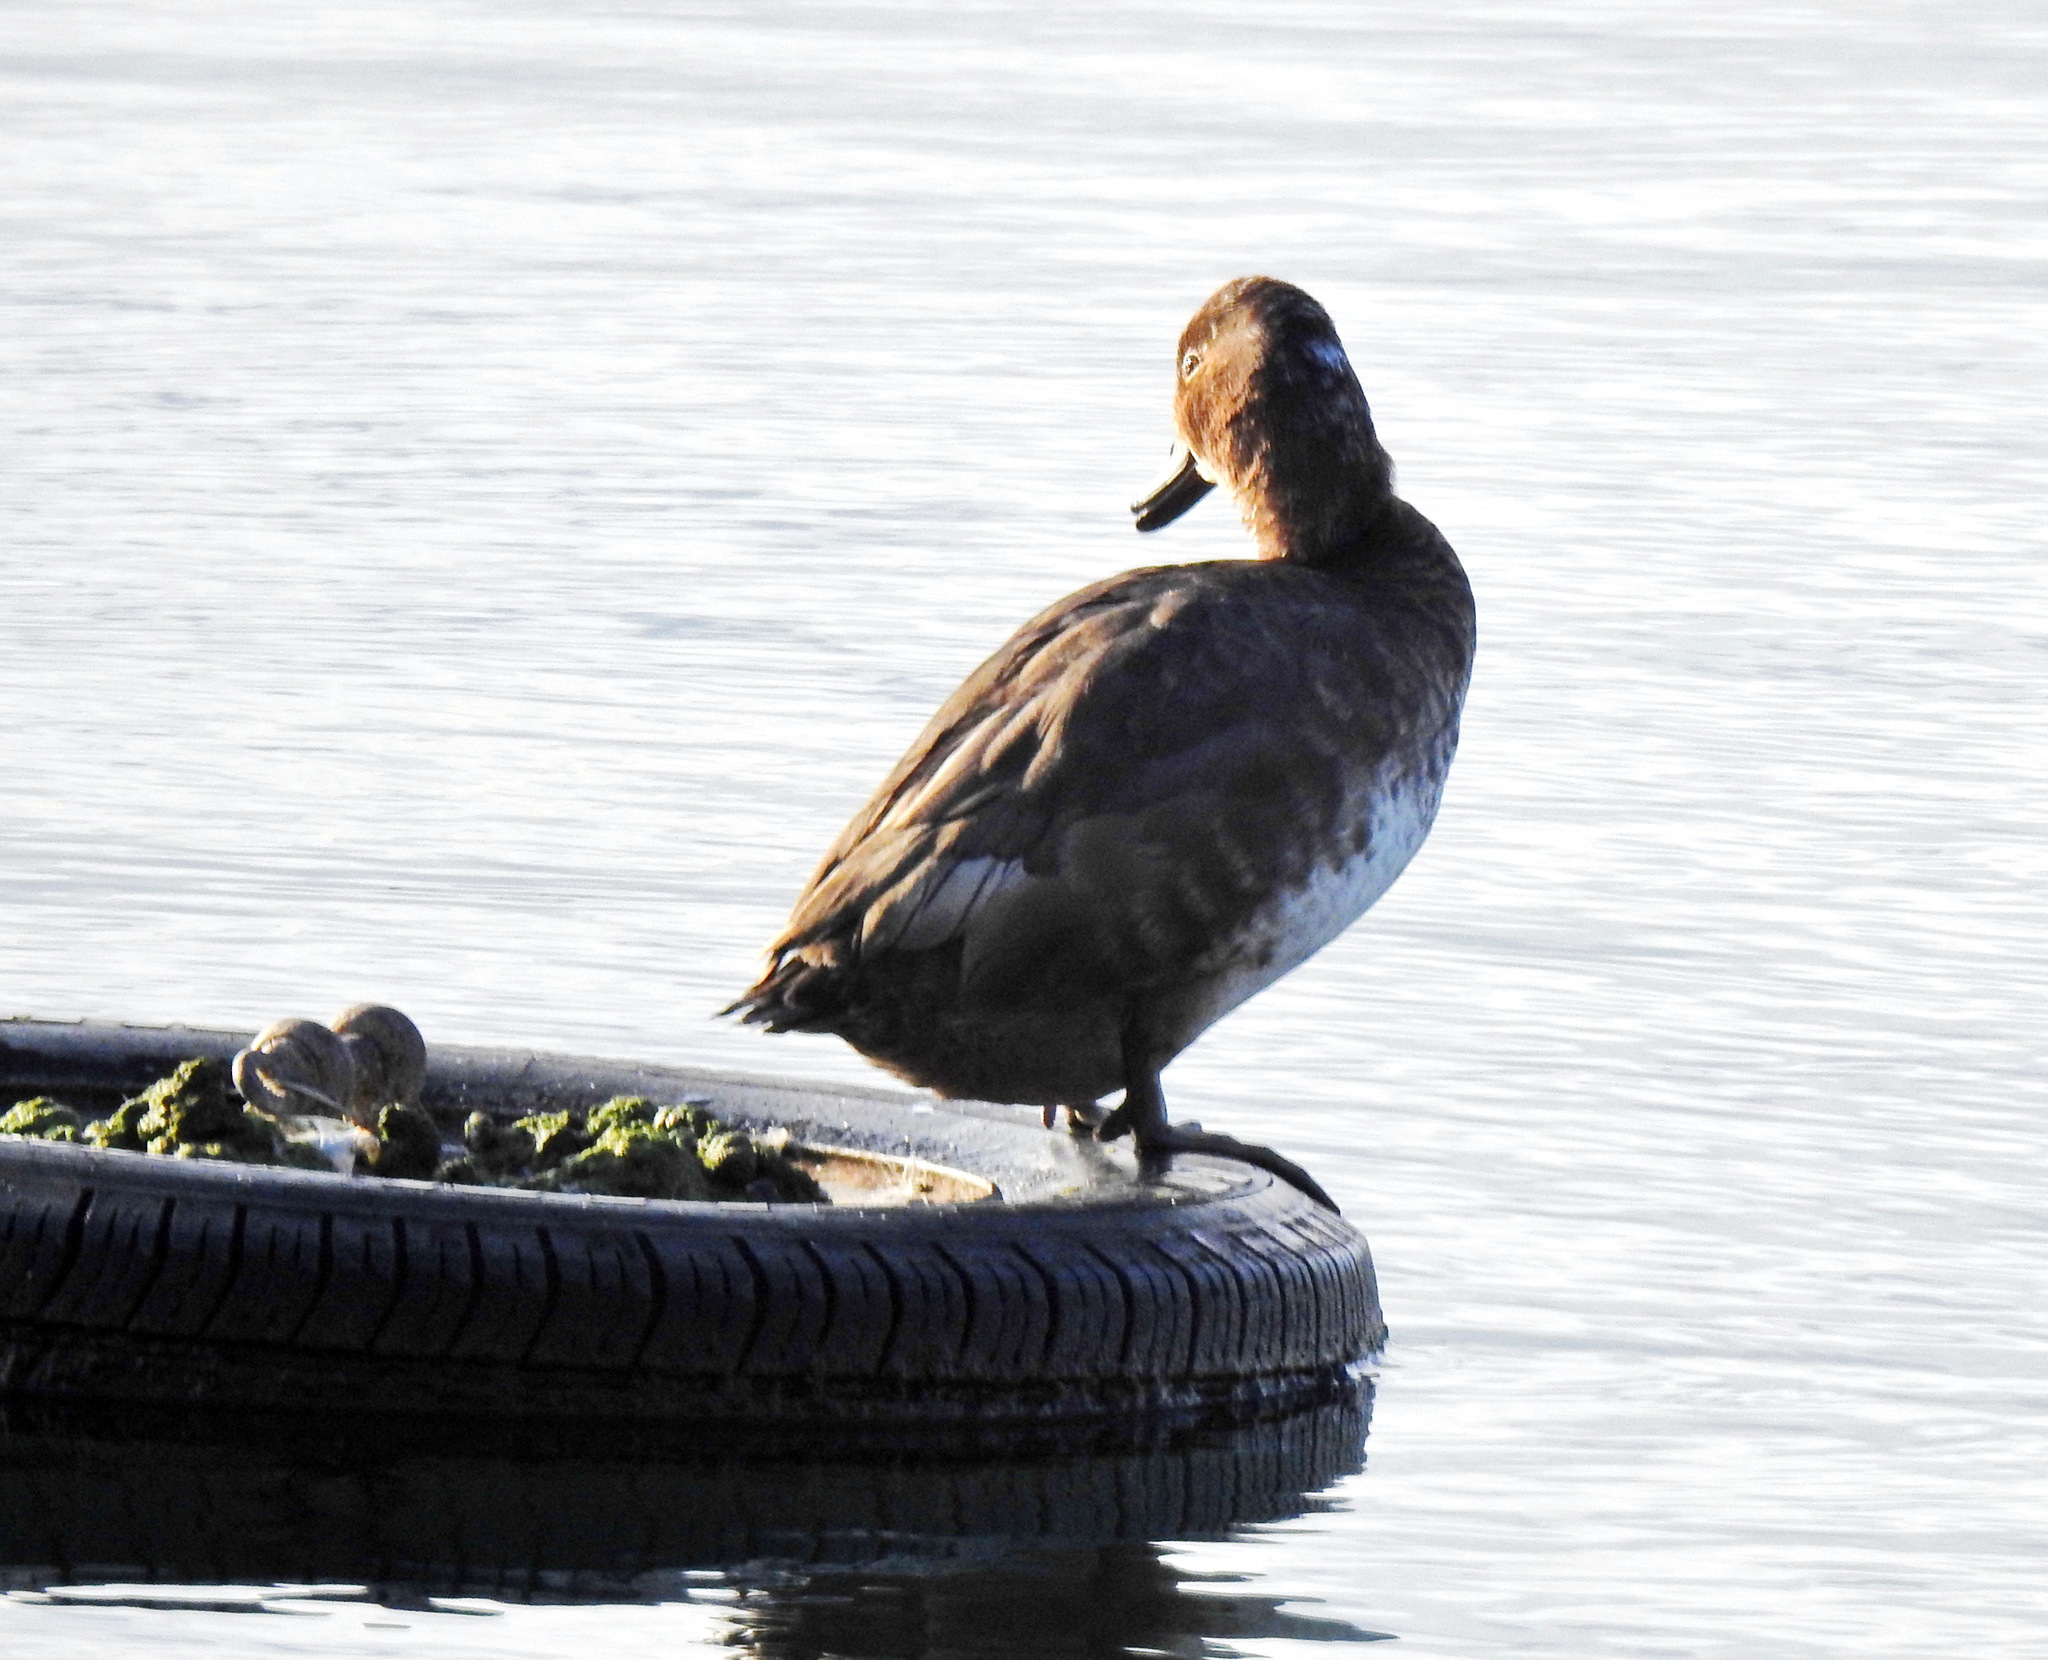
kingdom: Animalia
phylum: Chordata
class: Aves
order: Anseriformes
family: Anatidae
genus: Aythya
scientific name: Aythya americana
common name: Redhead
